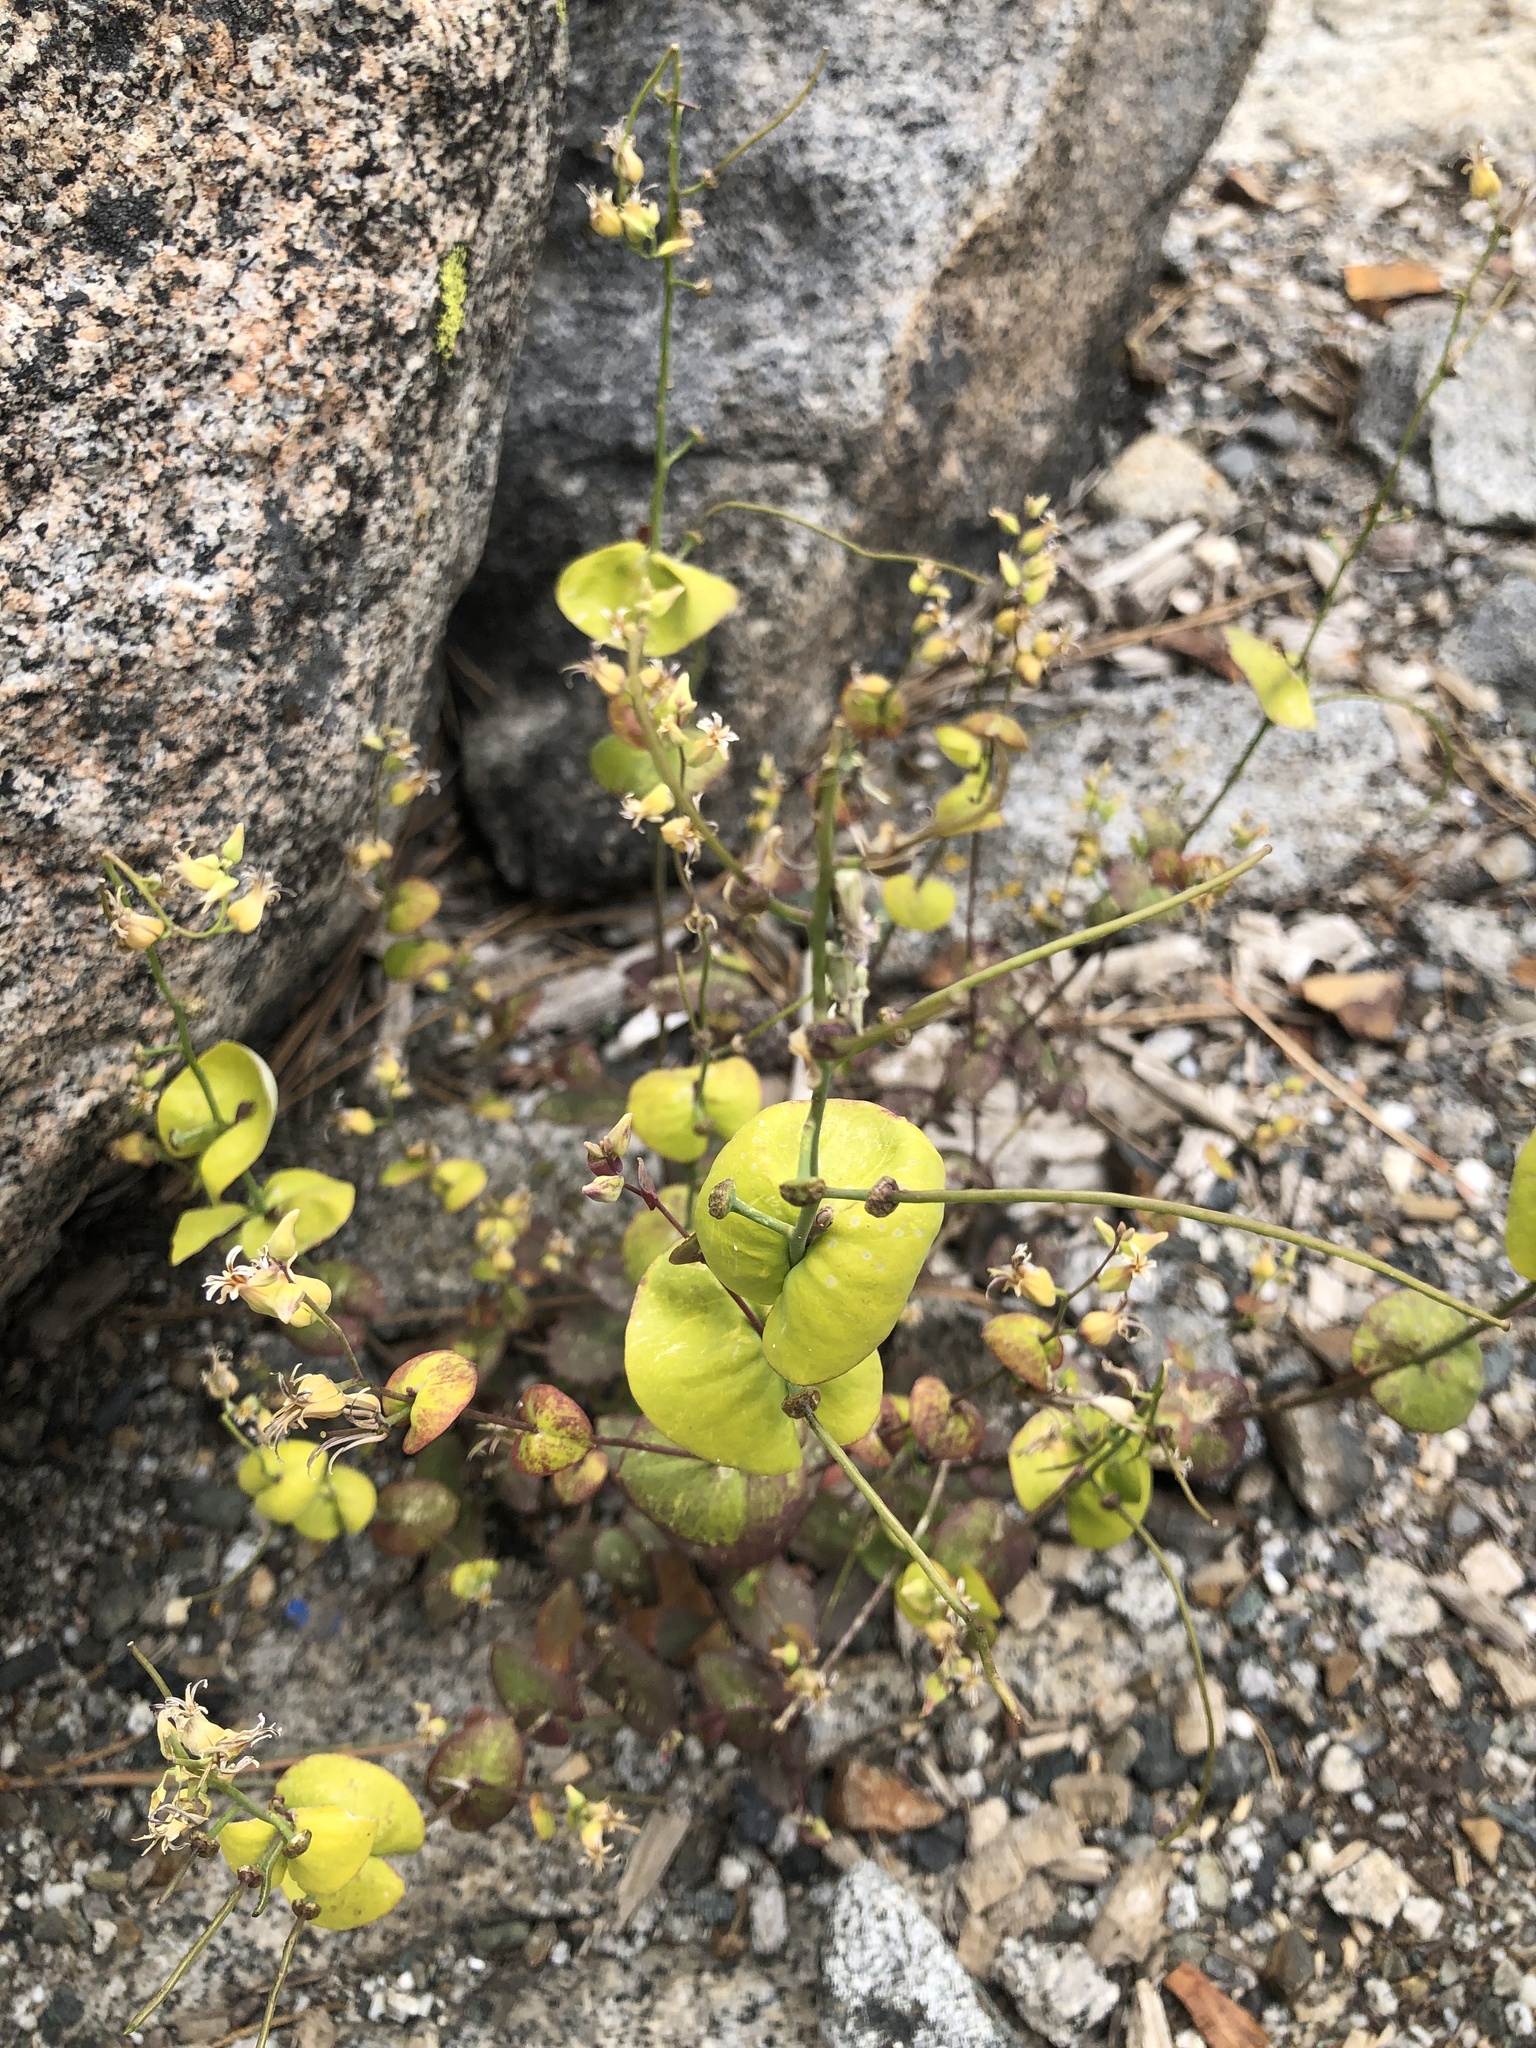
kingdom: Plantae
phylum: Tracheophyta
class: Magnoliopsida
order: Brassicales
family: Brassicaceae
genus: Streptanthus
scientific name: Streptanthus tortuosus
